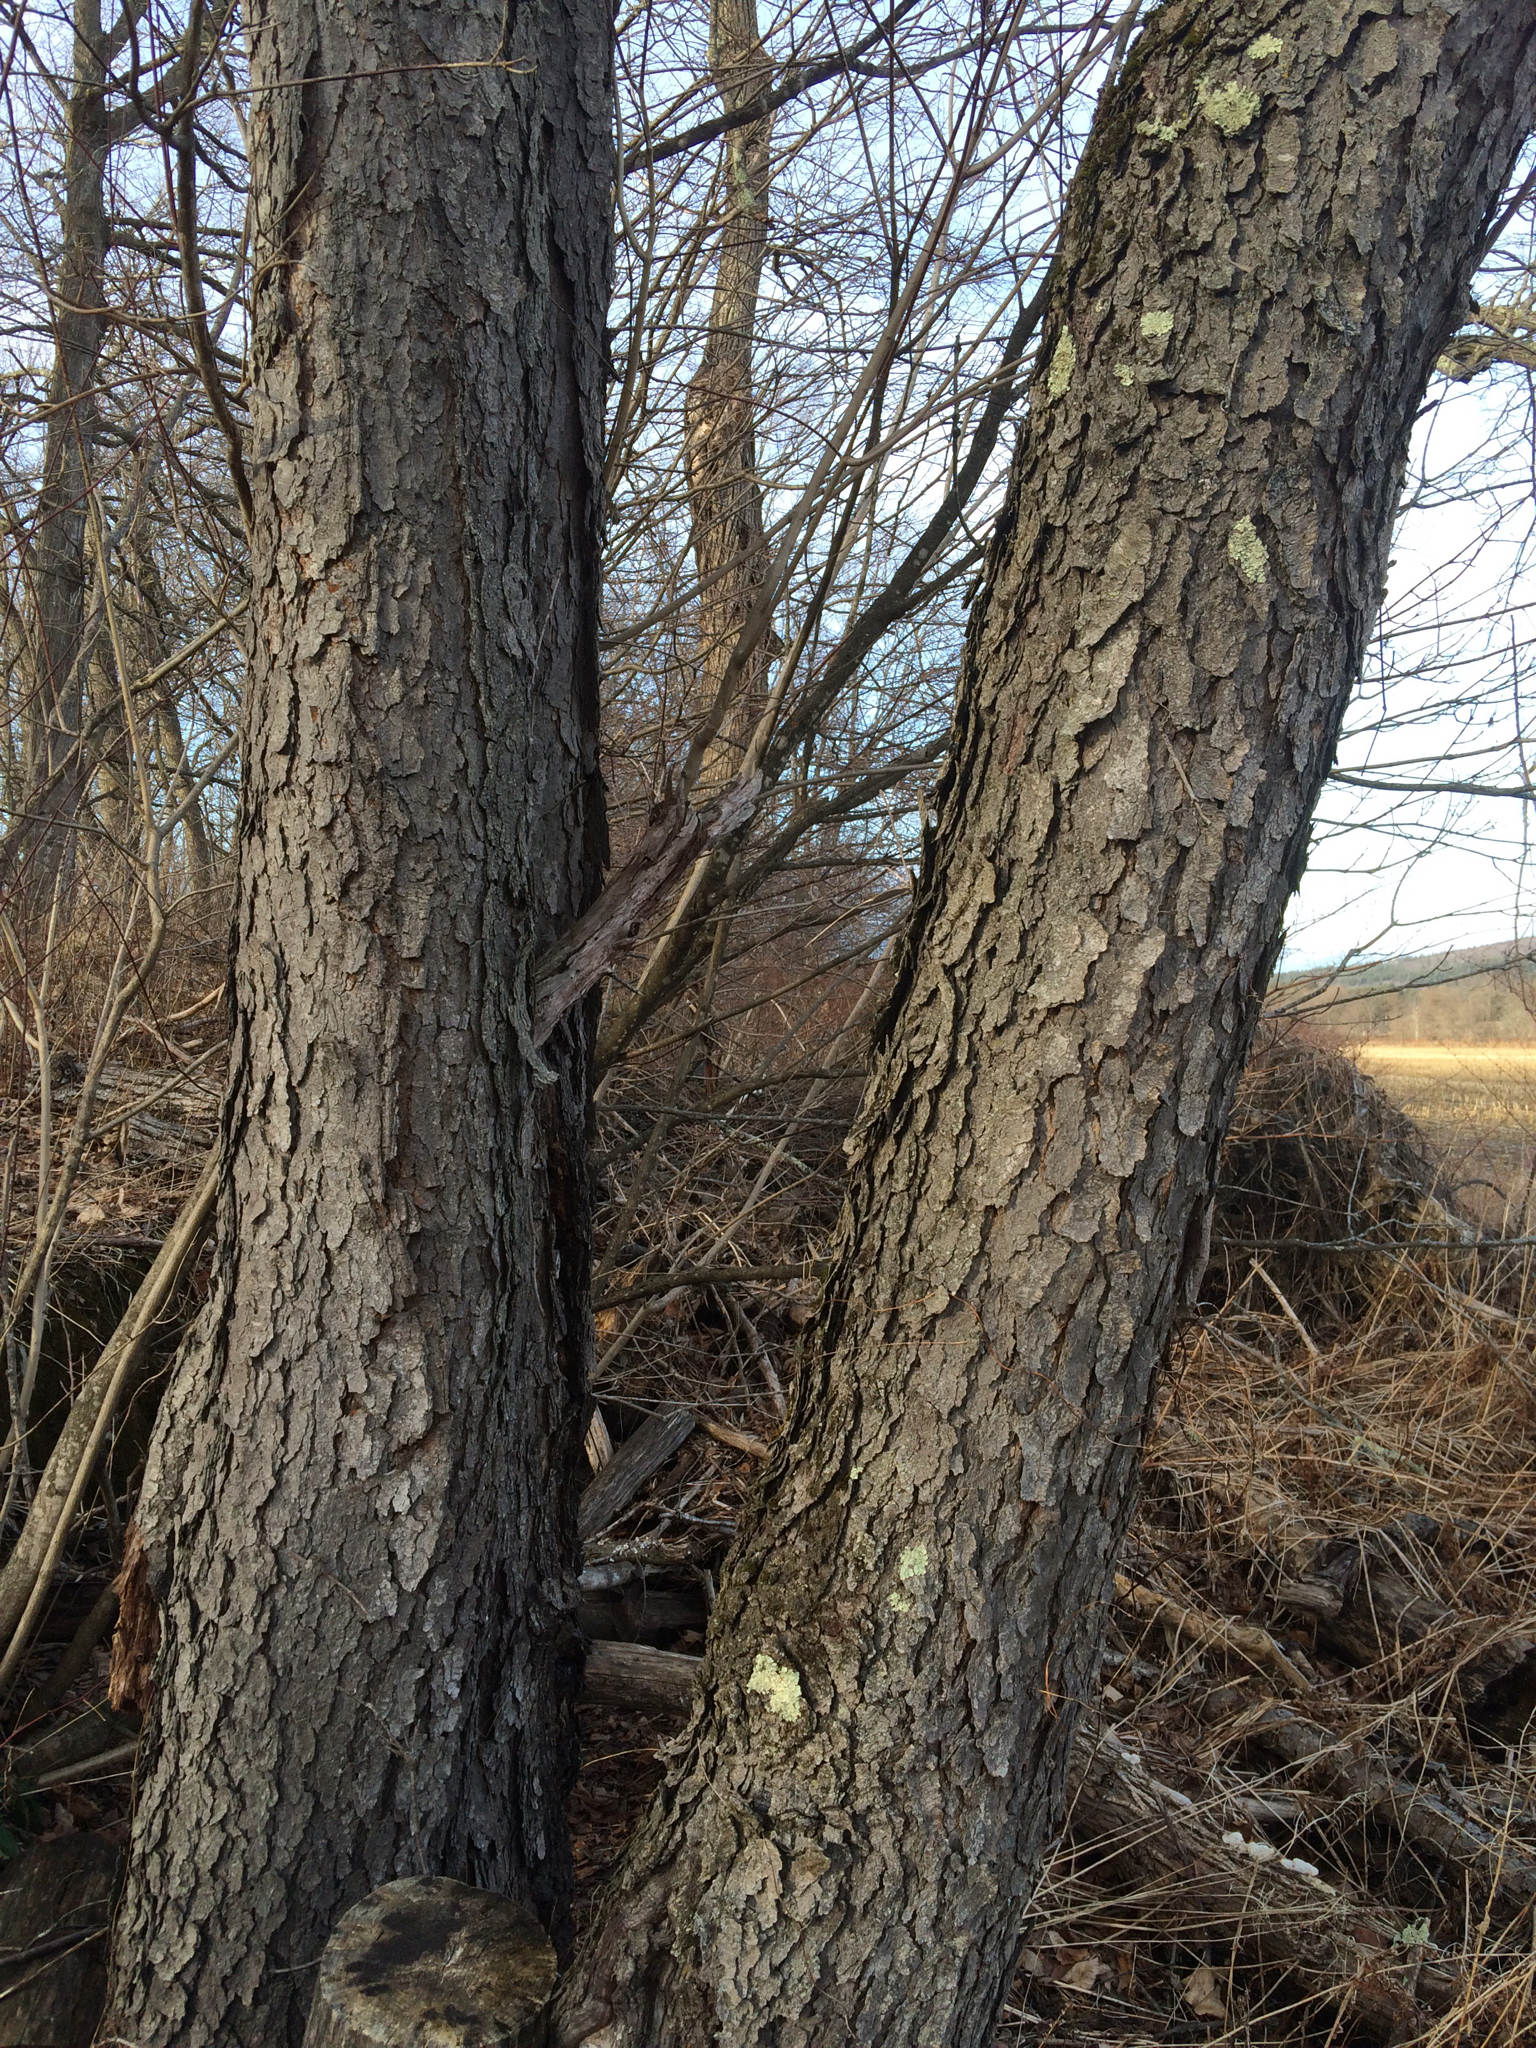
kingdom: Plantae
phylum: Tracheophyta
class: Magnoliopsida
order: Rosales
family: Rosaceae
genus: Prunus
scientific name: Prunus serotina
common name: Black cherry
